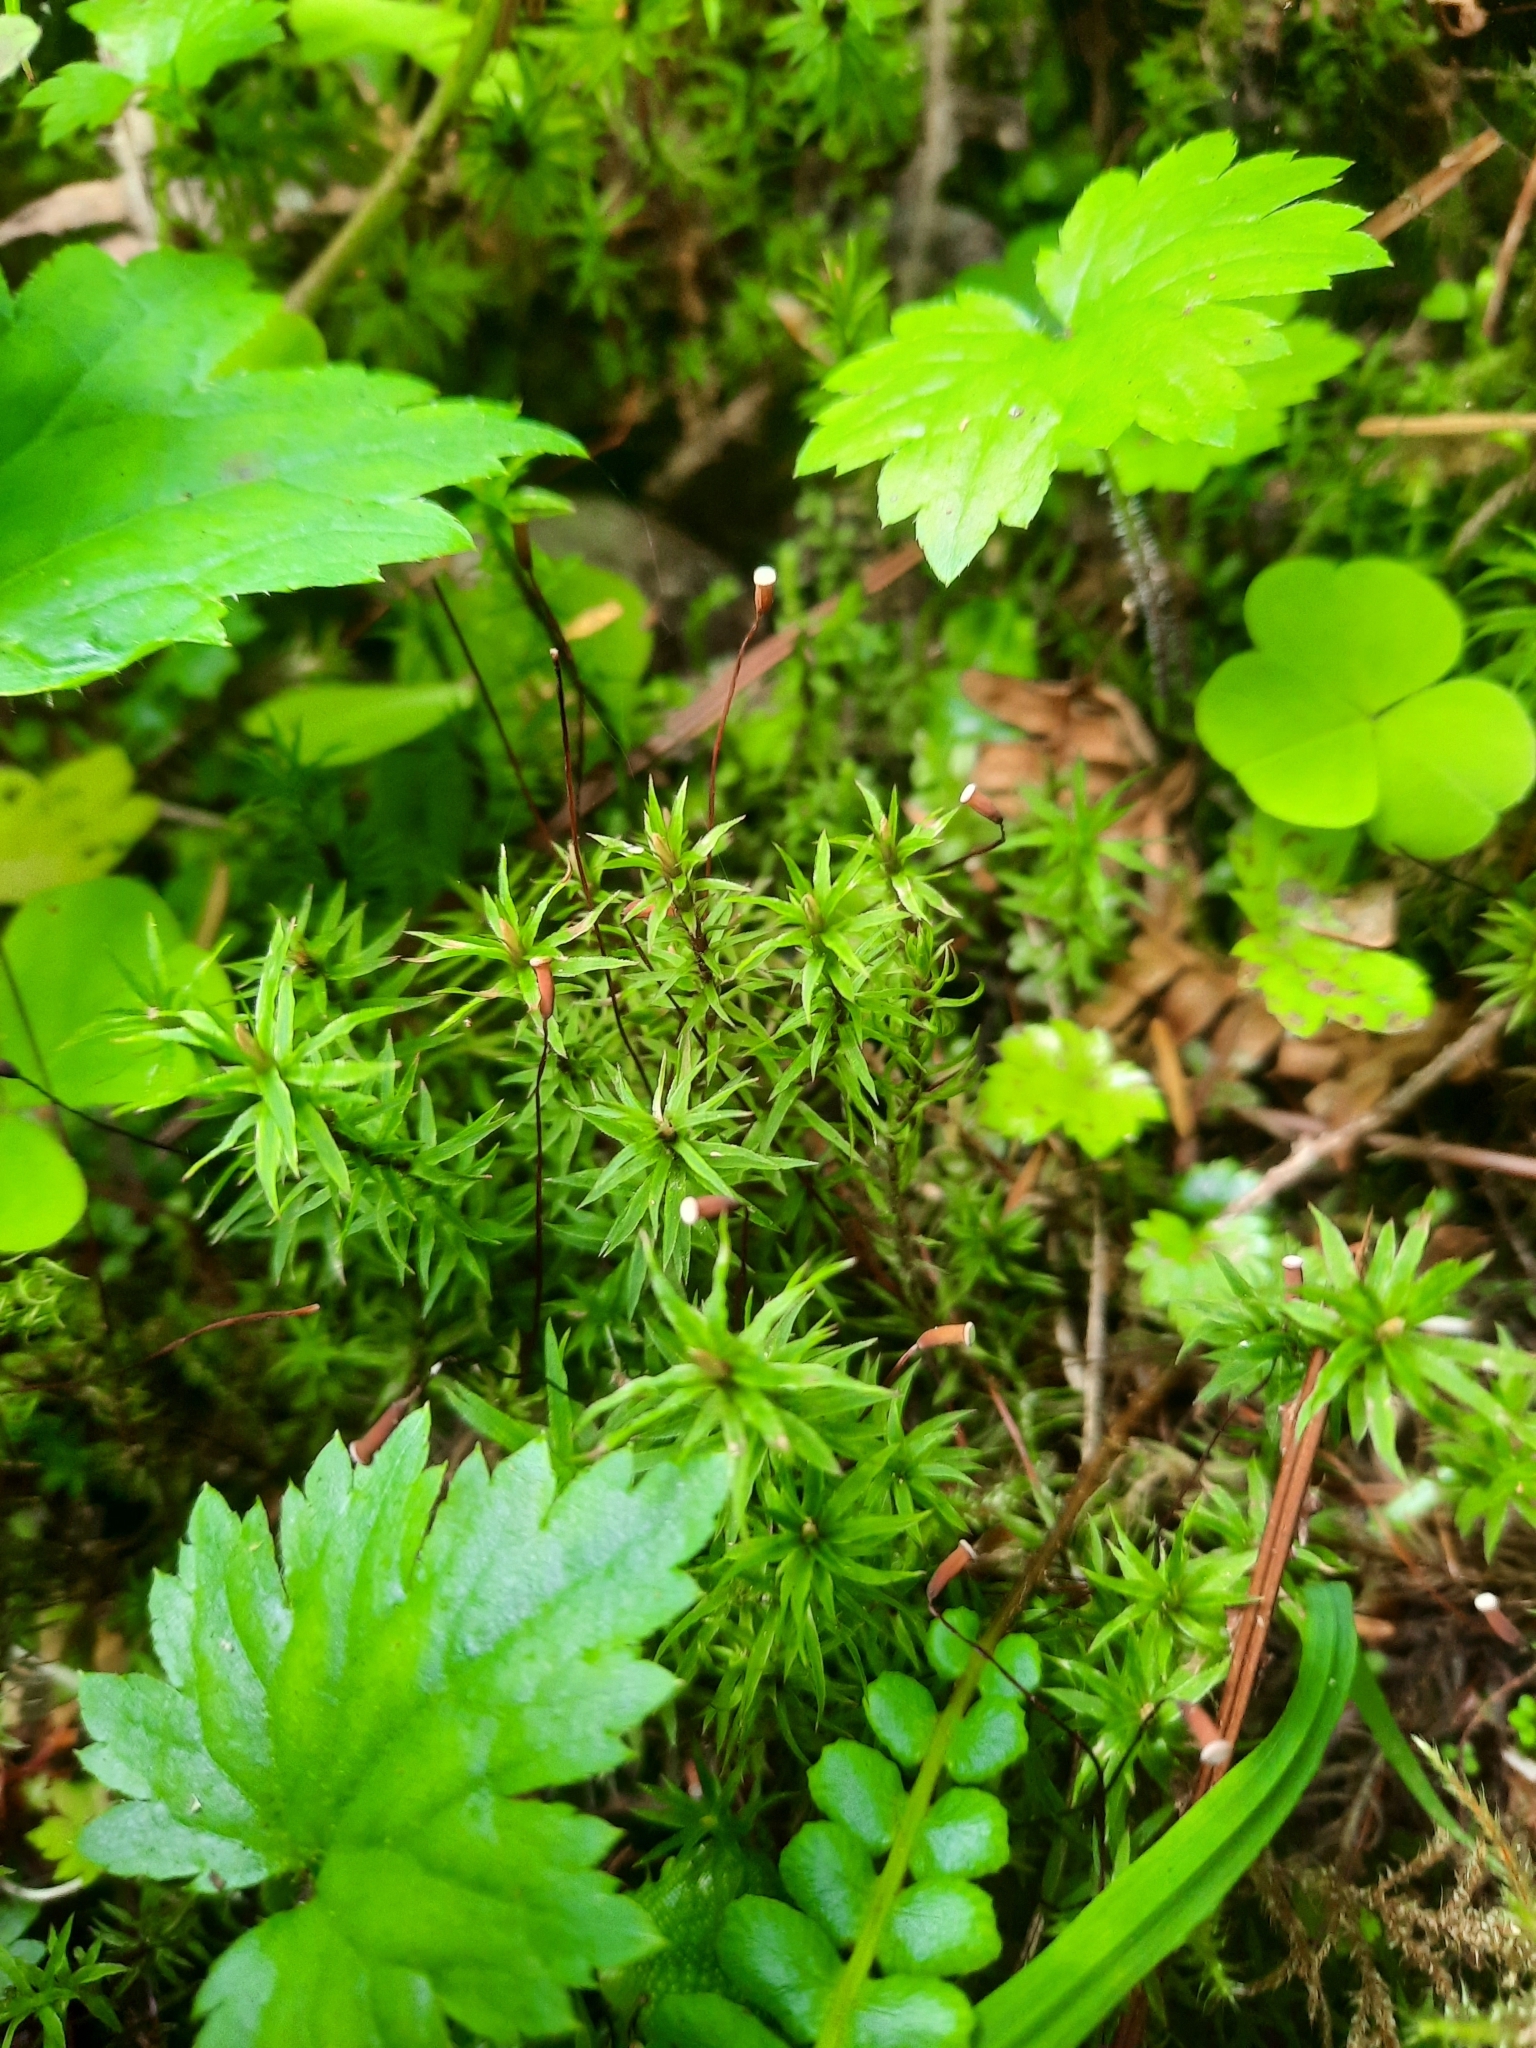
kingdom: Plantae
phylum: Bryophyta
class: Polytrichopsida
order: Polytrichales
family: Polytrichaceae
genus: Pogonatum
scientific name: Pogonatum contortum
